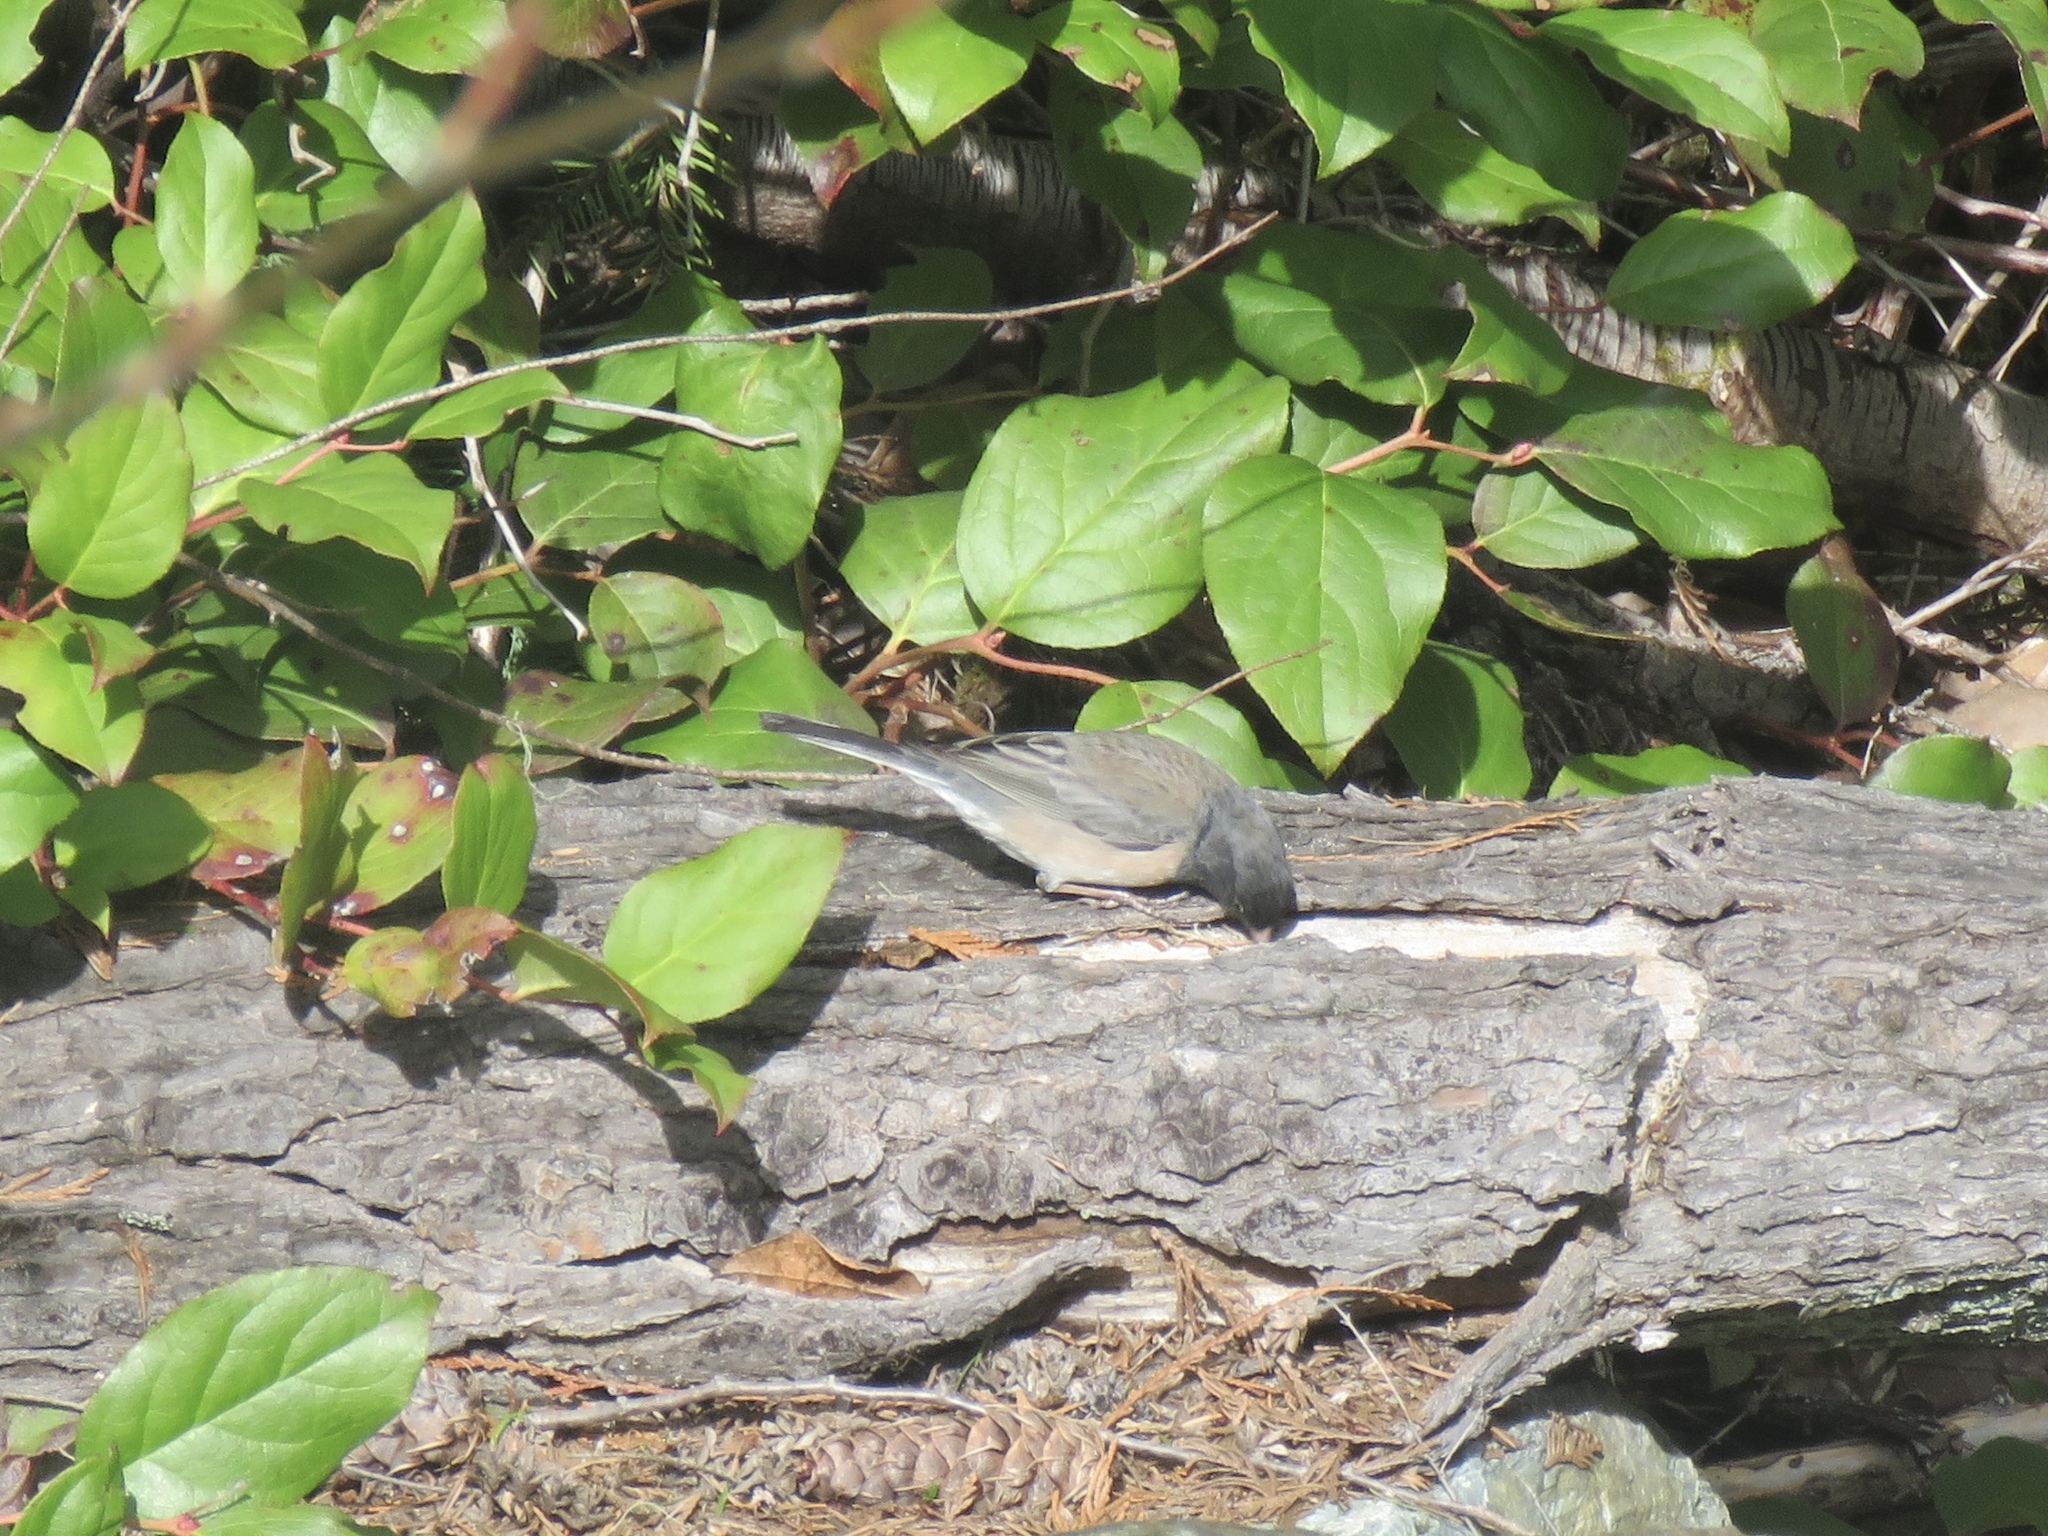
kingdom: Animalia
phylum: Chordata
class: Aves
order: Passeriformes
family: Passerellidae
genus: Junco
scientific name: Junco hyemalis
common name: Dark-eyed junco
